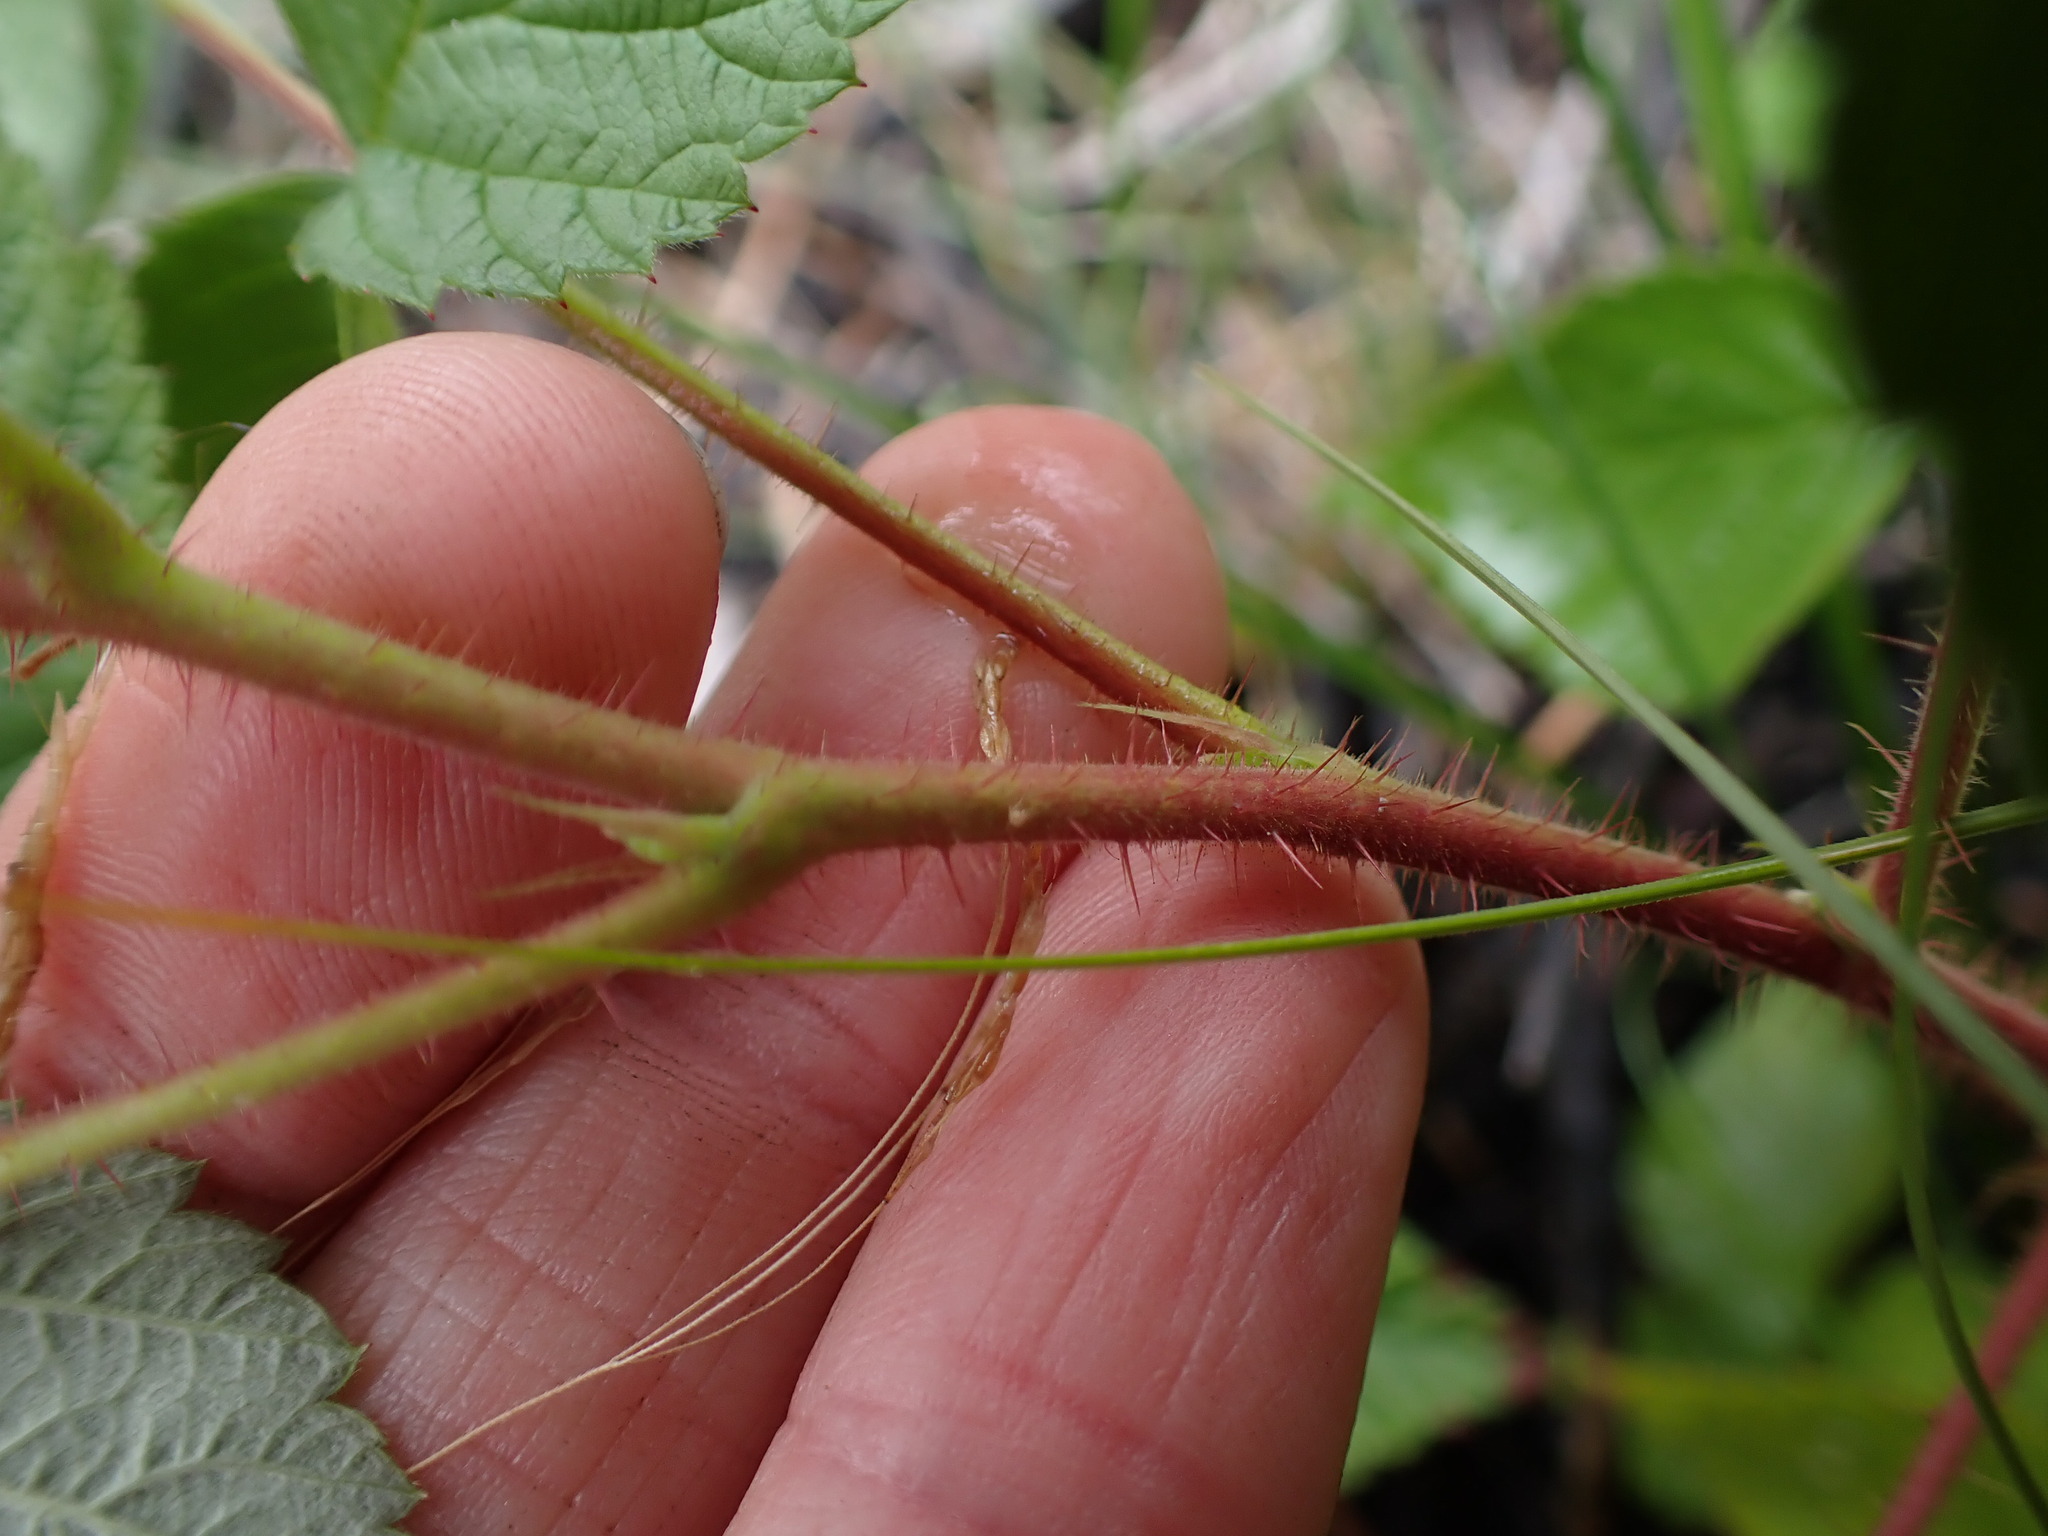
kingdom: Plantae
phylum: Tracheophyta
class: Magnoliopsida
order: Rosales
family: Rosaceae
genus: Rubus
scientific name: Rubus idaeus
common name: Raspberry
